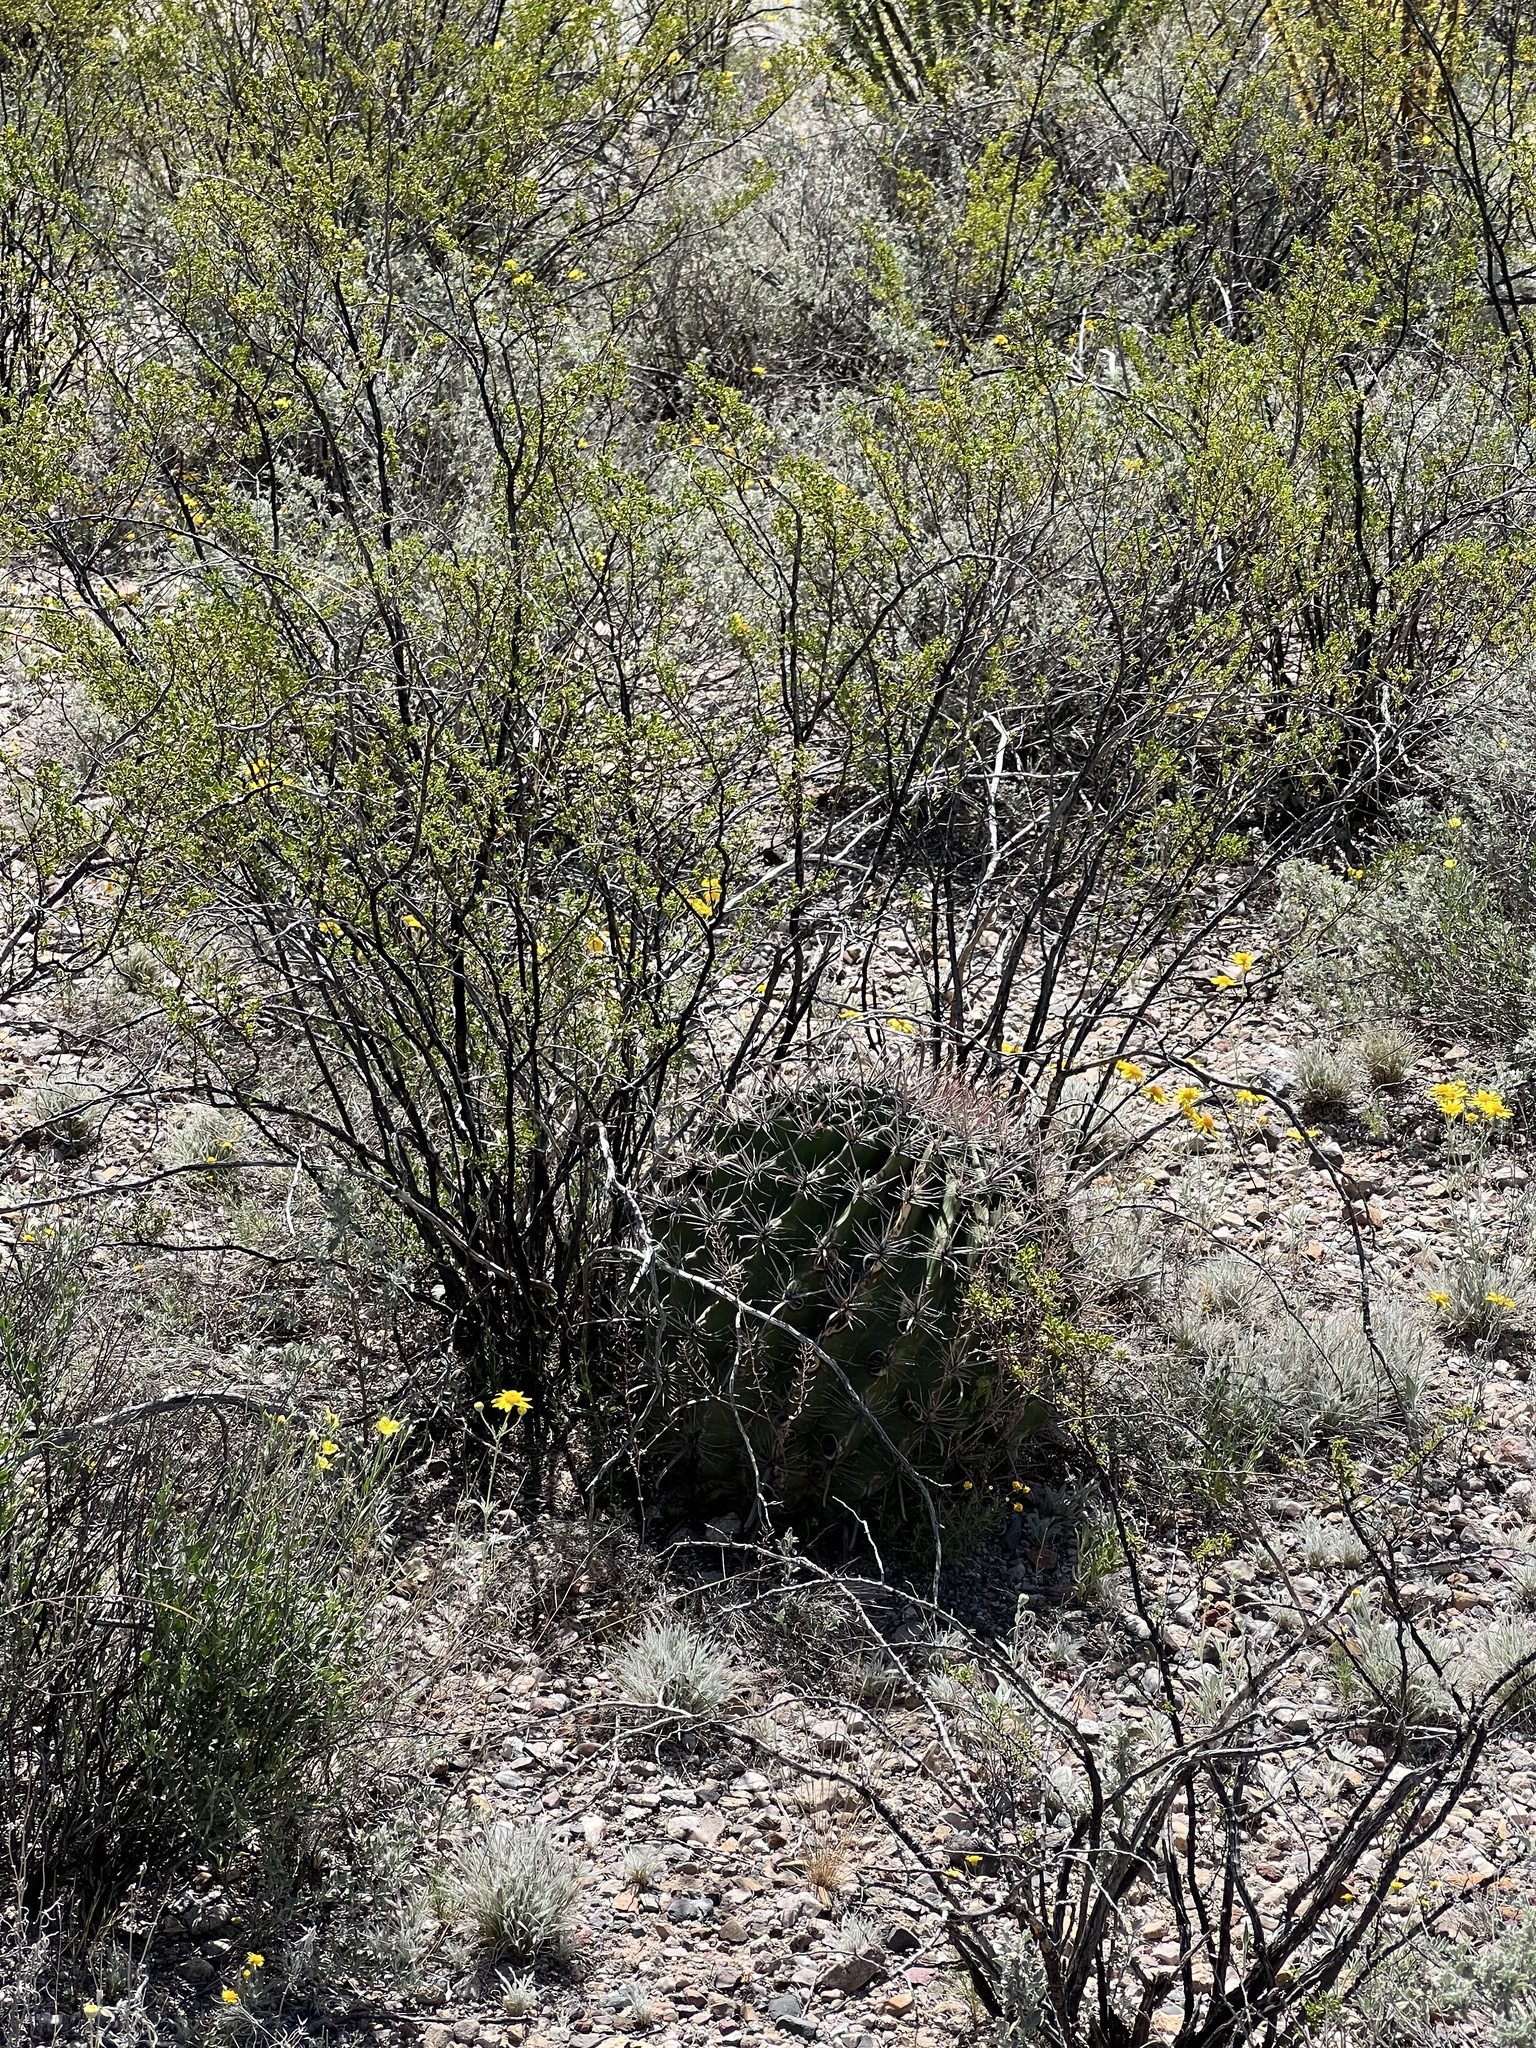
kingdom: Plantae
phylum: Tracheophyta
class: Magnoliopsida
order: Caryophyllales
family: Cactaceae
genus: Ferocactus
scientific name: Ferocactus wislizeni
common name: Candy barrel cactus
